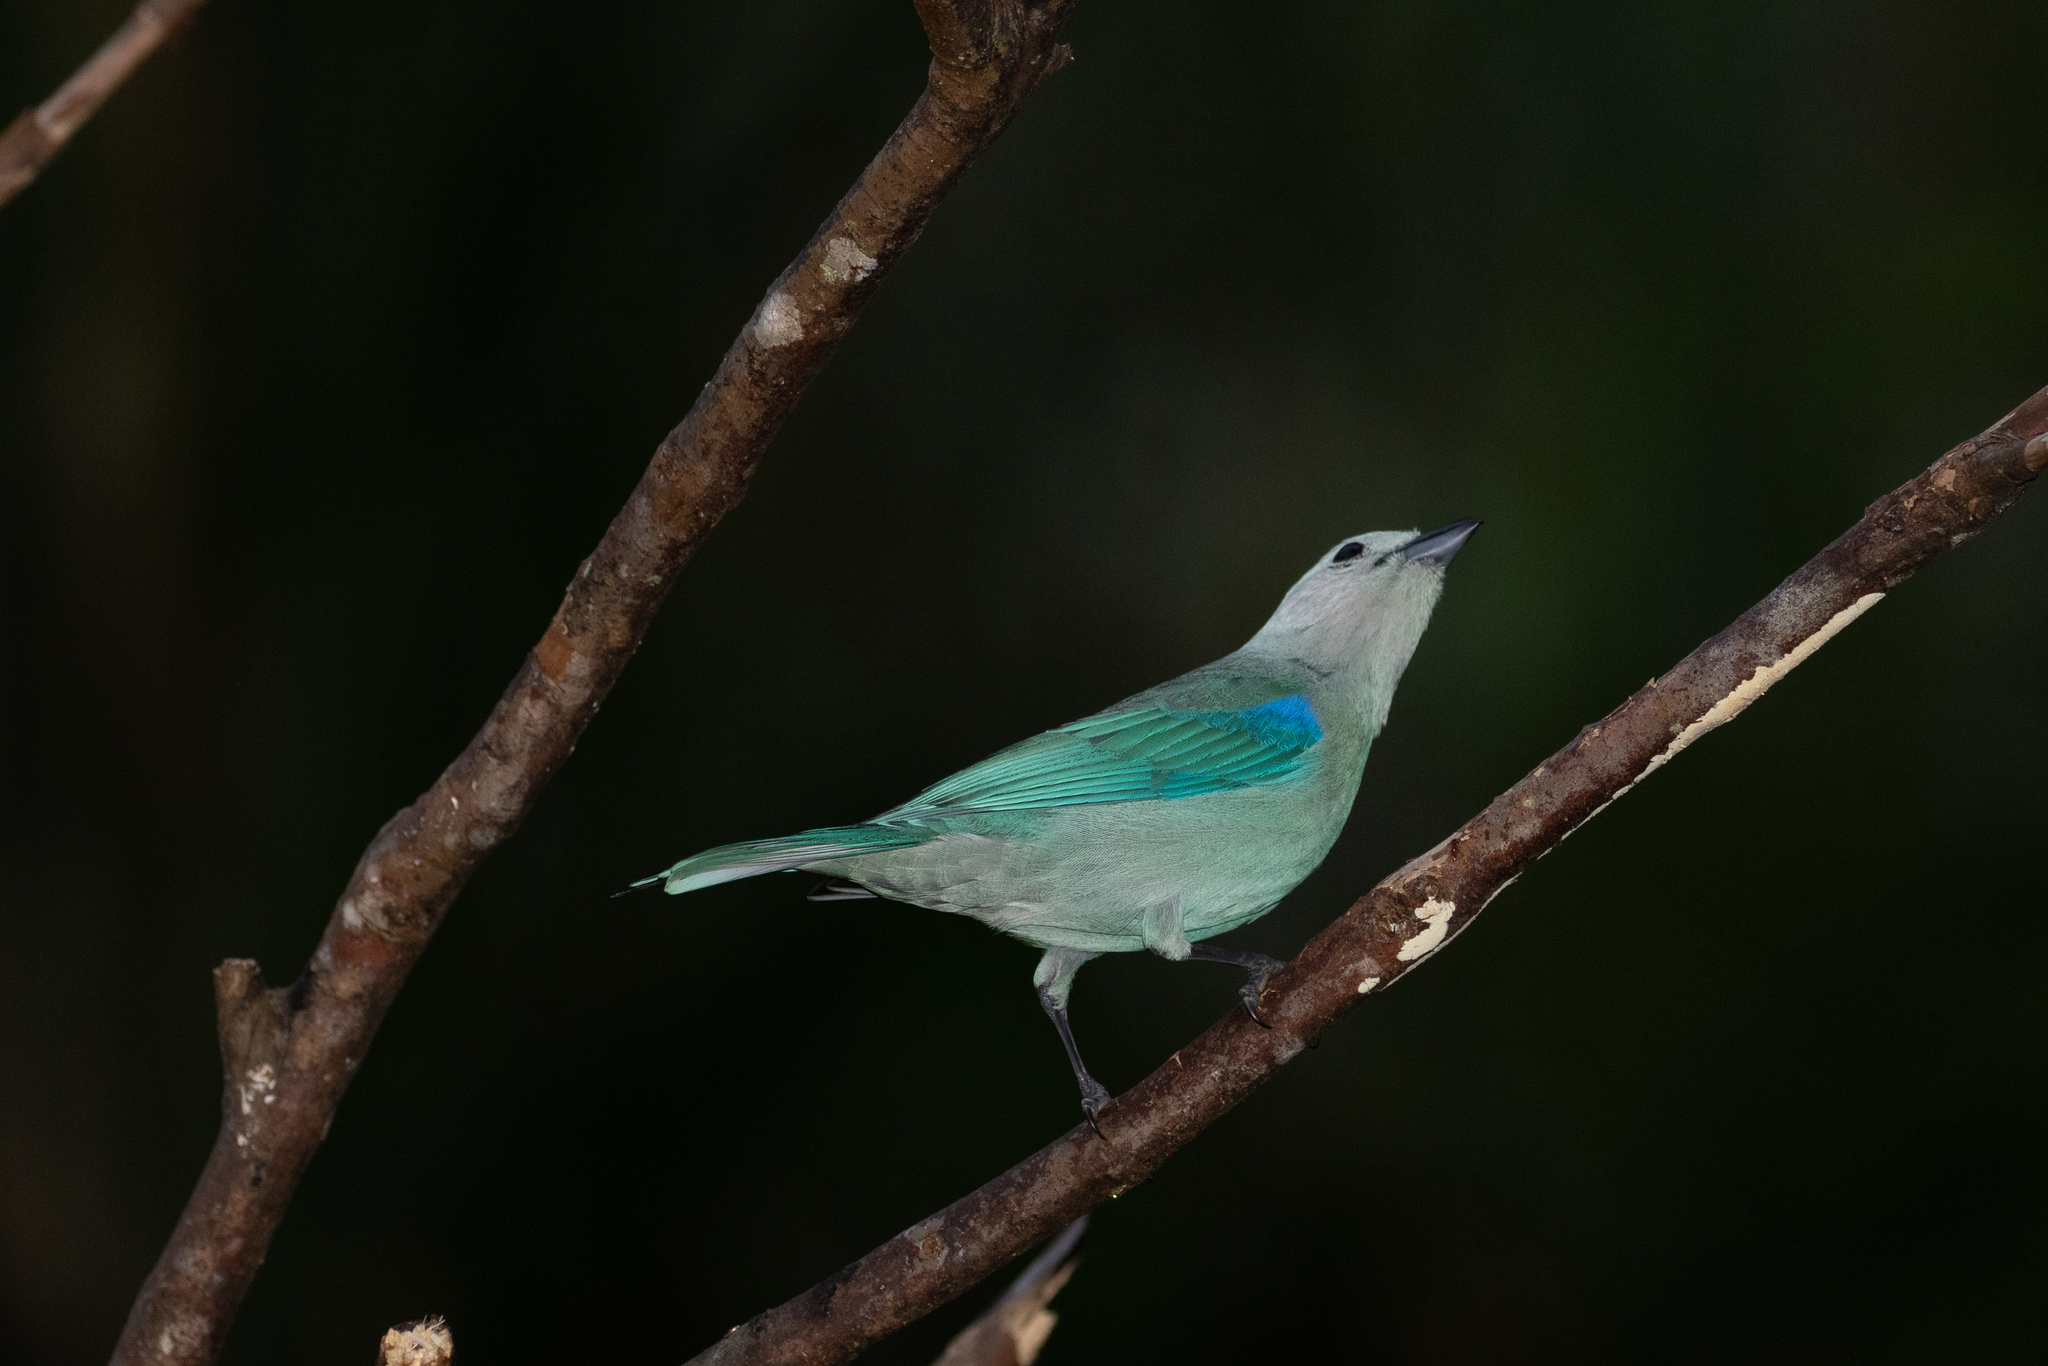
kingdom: Animalia
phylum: Chordata
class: Aves
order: Passeriformes
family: Thraupidae
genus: Thraupis
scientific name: Thraupis episcopus
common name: Blue-grey tanager
